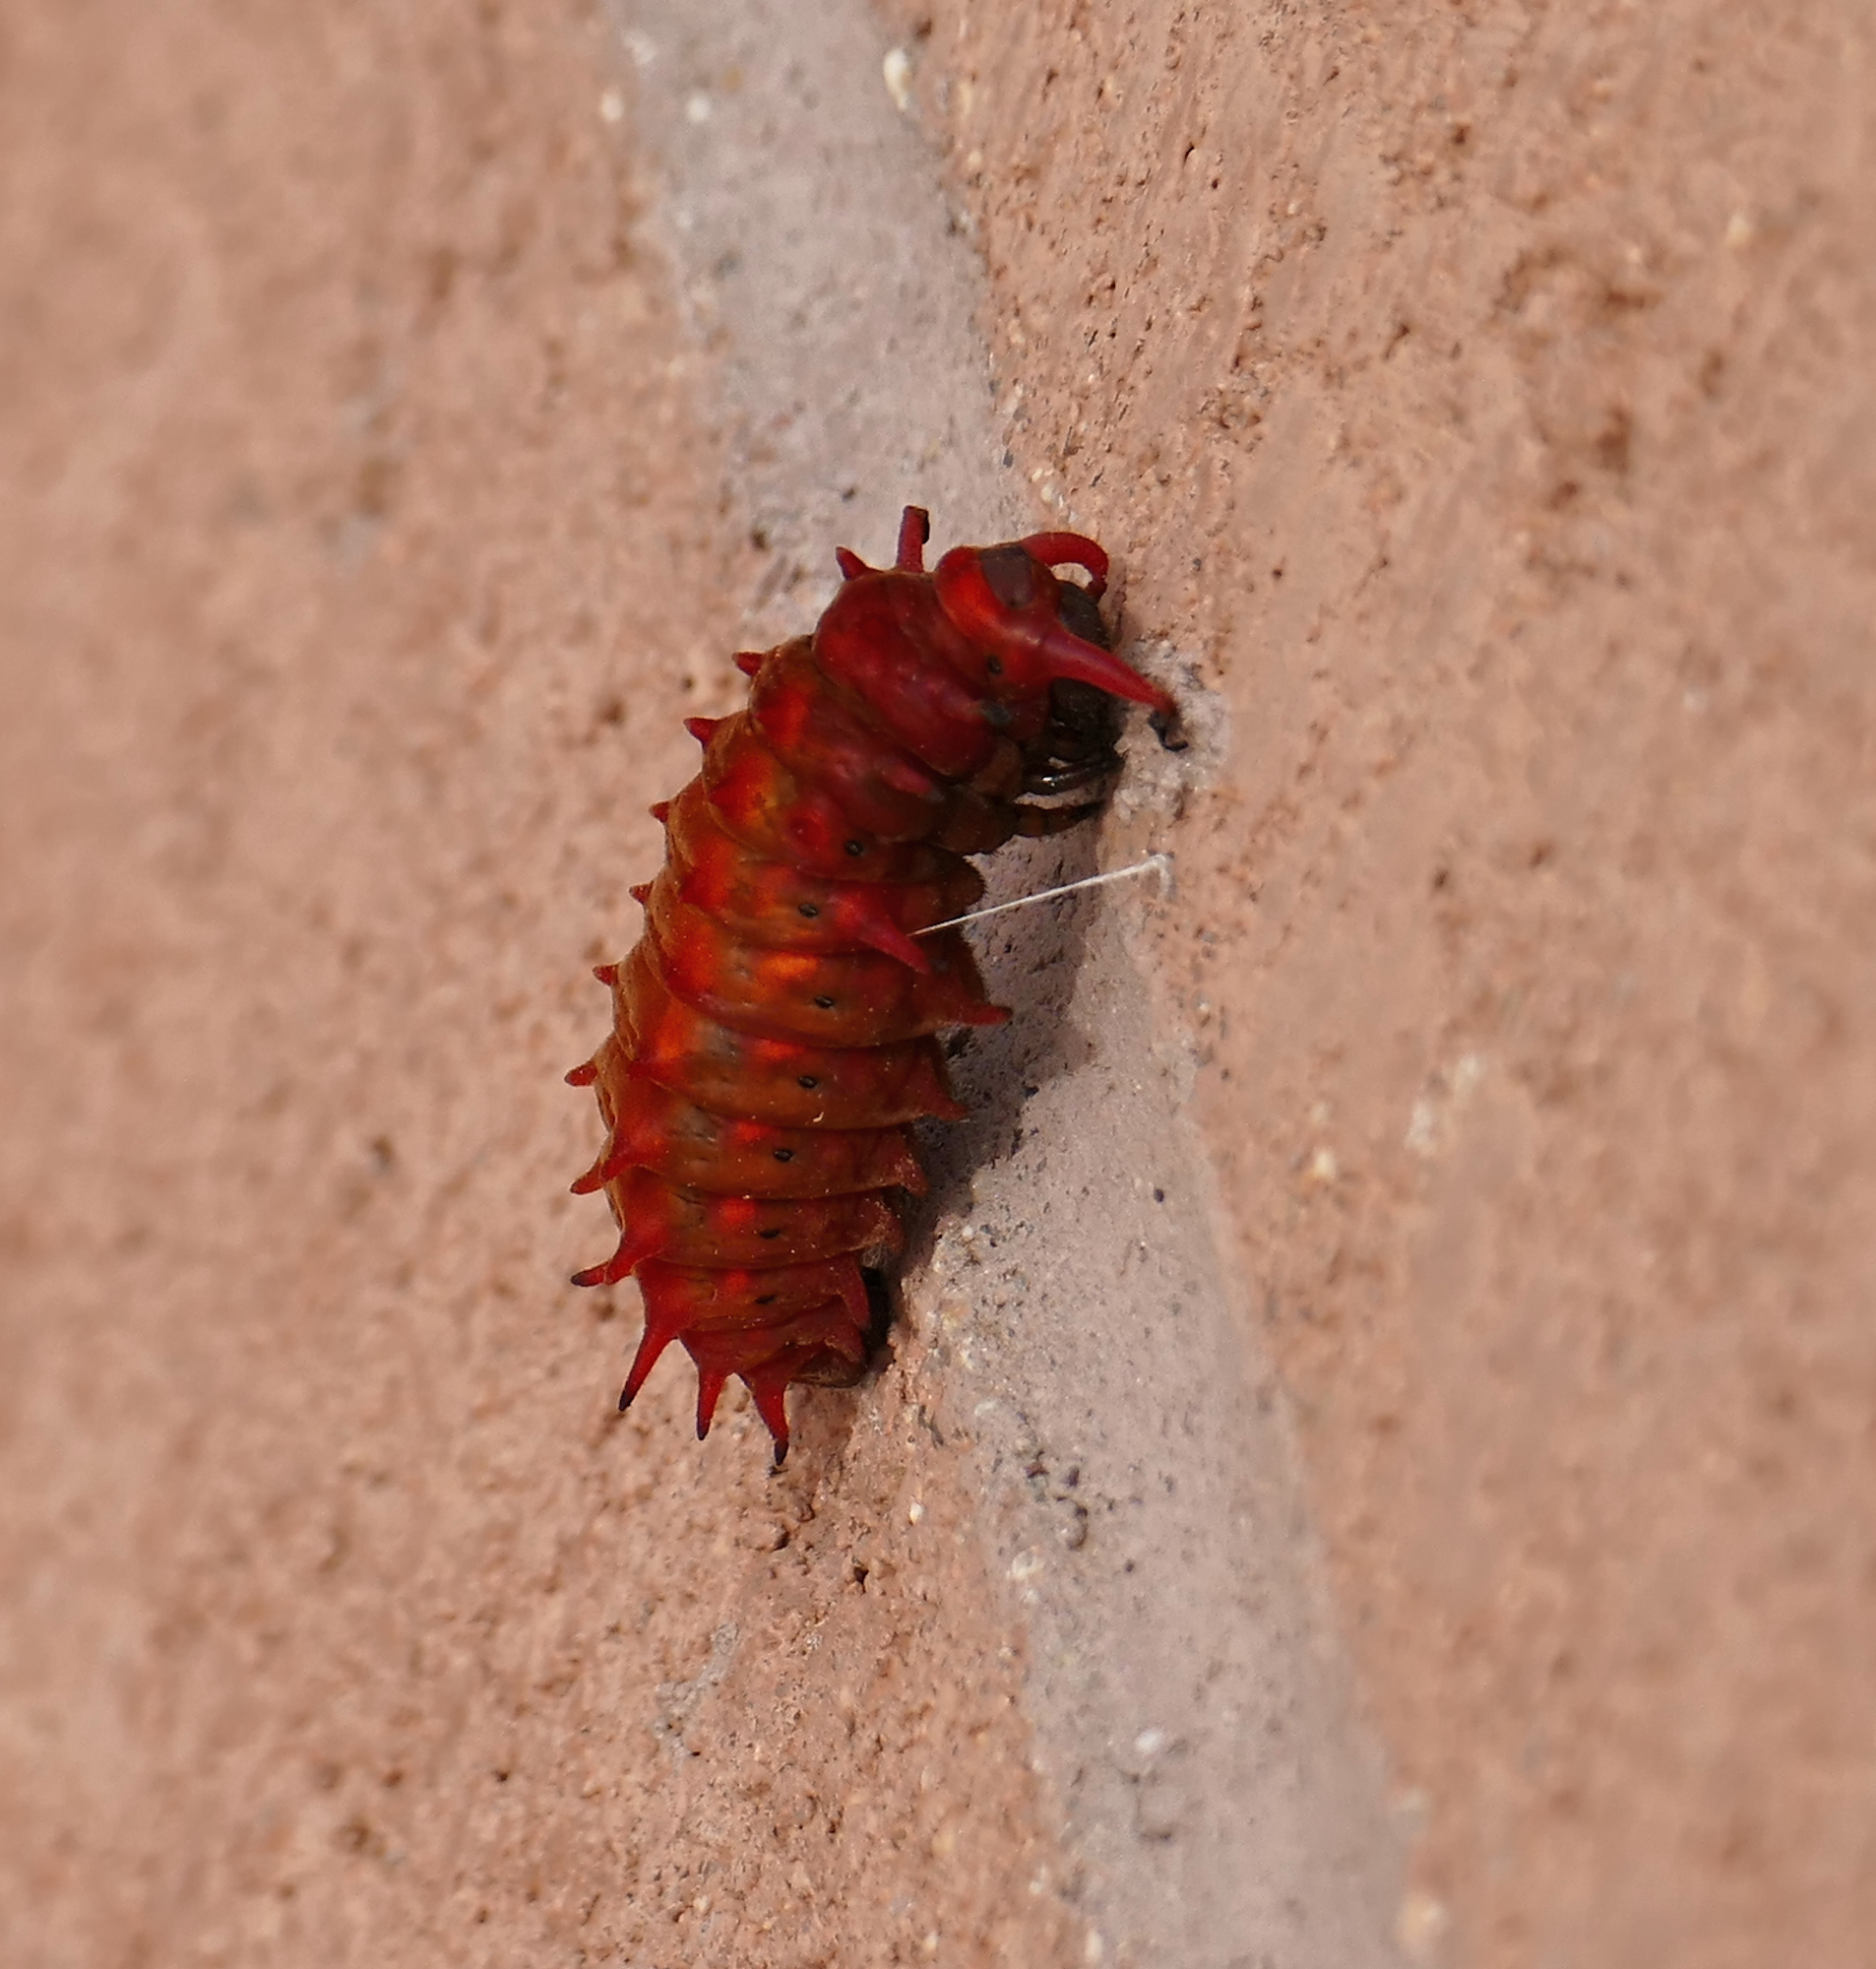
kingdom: Animalia
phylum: Arthropoda
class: Insecta
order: Lepidoptera
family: Papilionidae
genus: Battus
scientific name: Battus philenor
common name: Pipevine swallowtail
